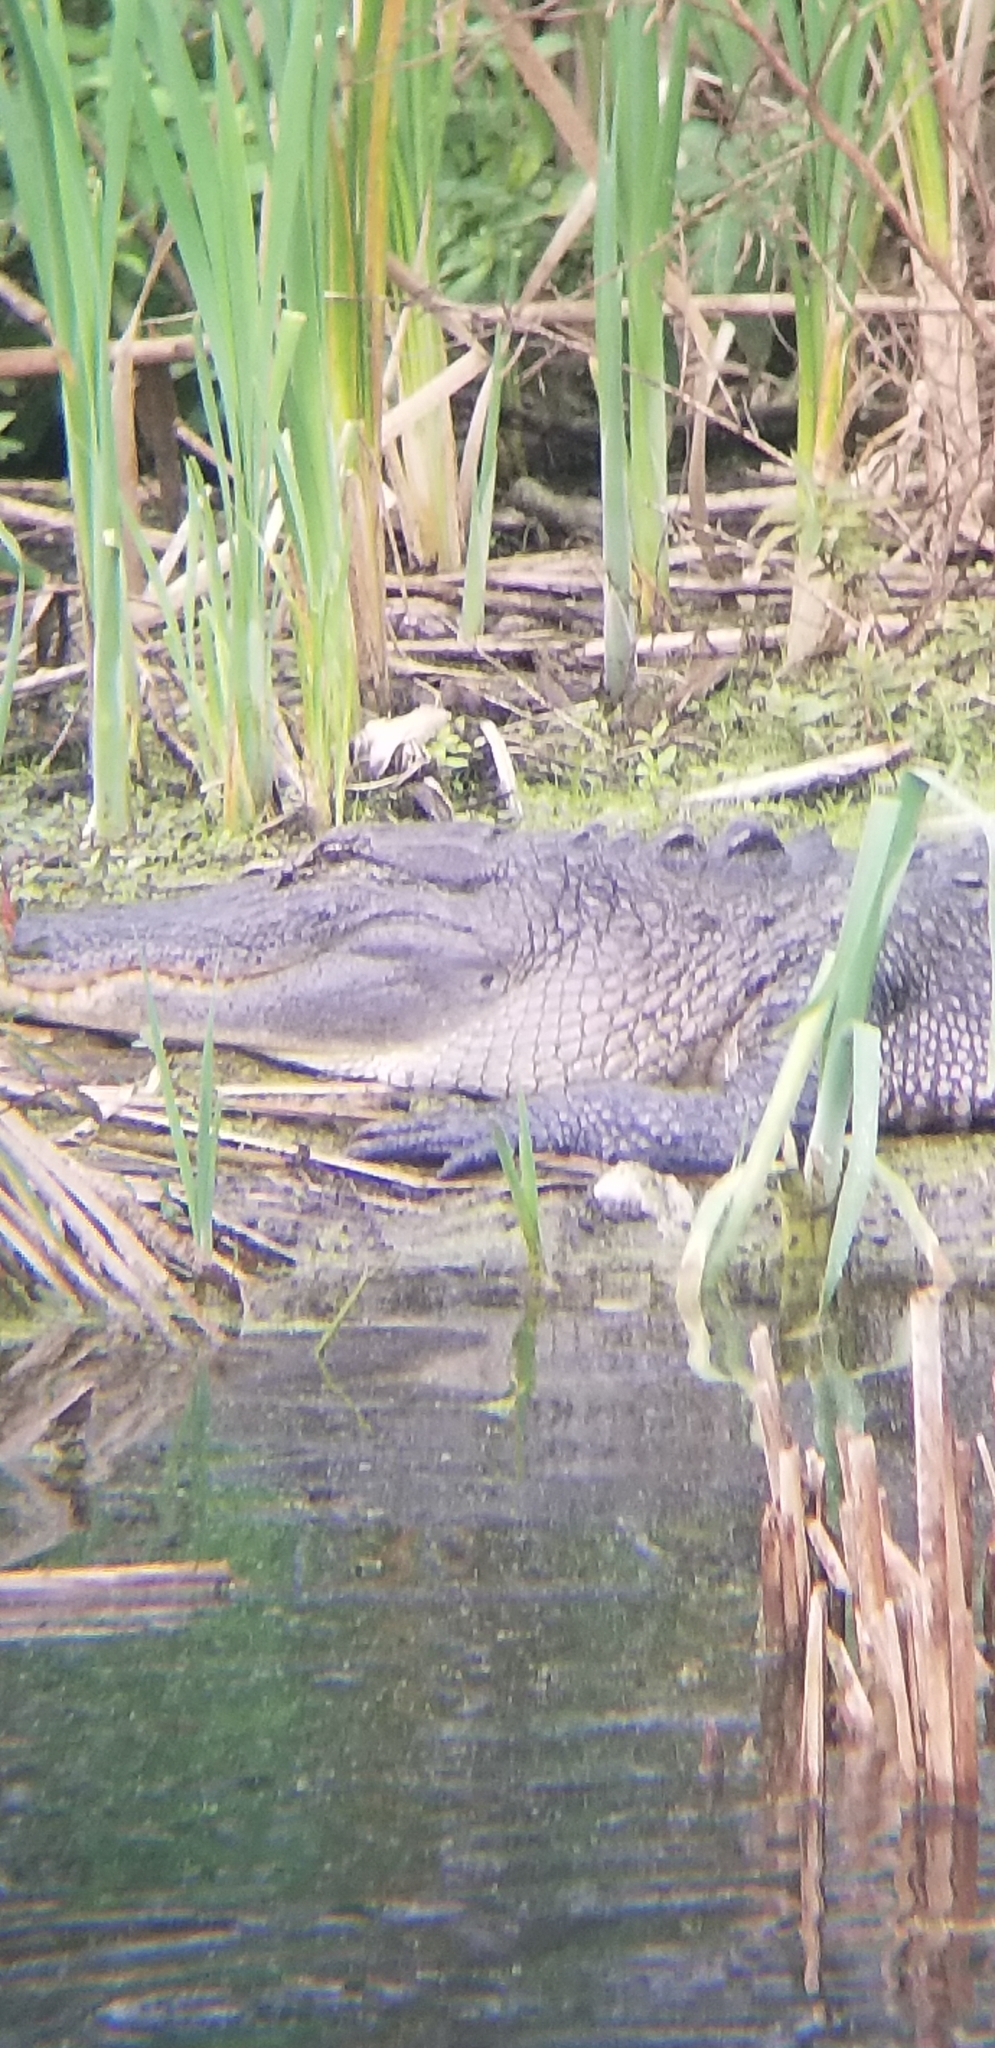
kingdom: Animalia
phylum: Chordata
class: Crocodylia
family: Alligatoridae
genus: Alligator
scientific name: Alligator mississippiensis
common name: American alligator
